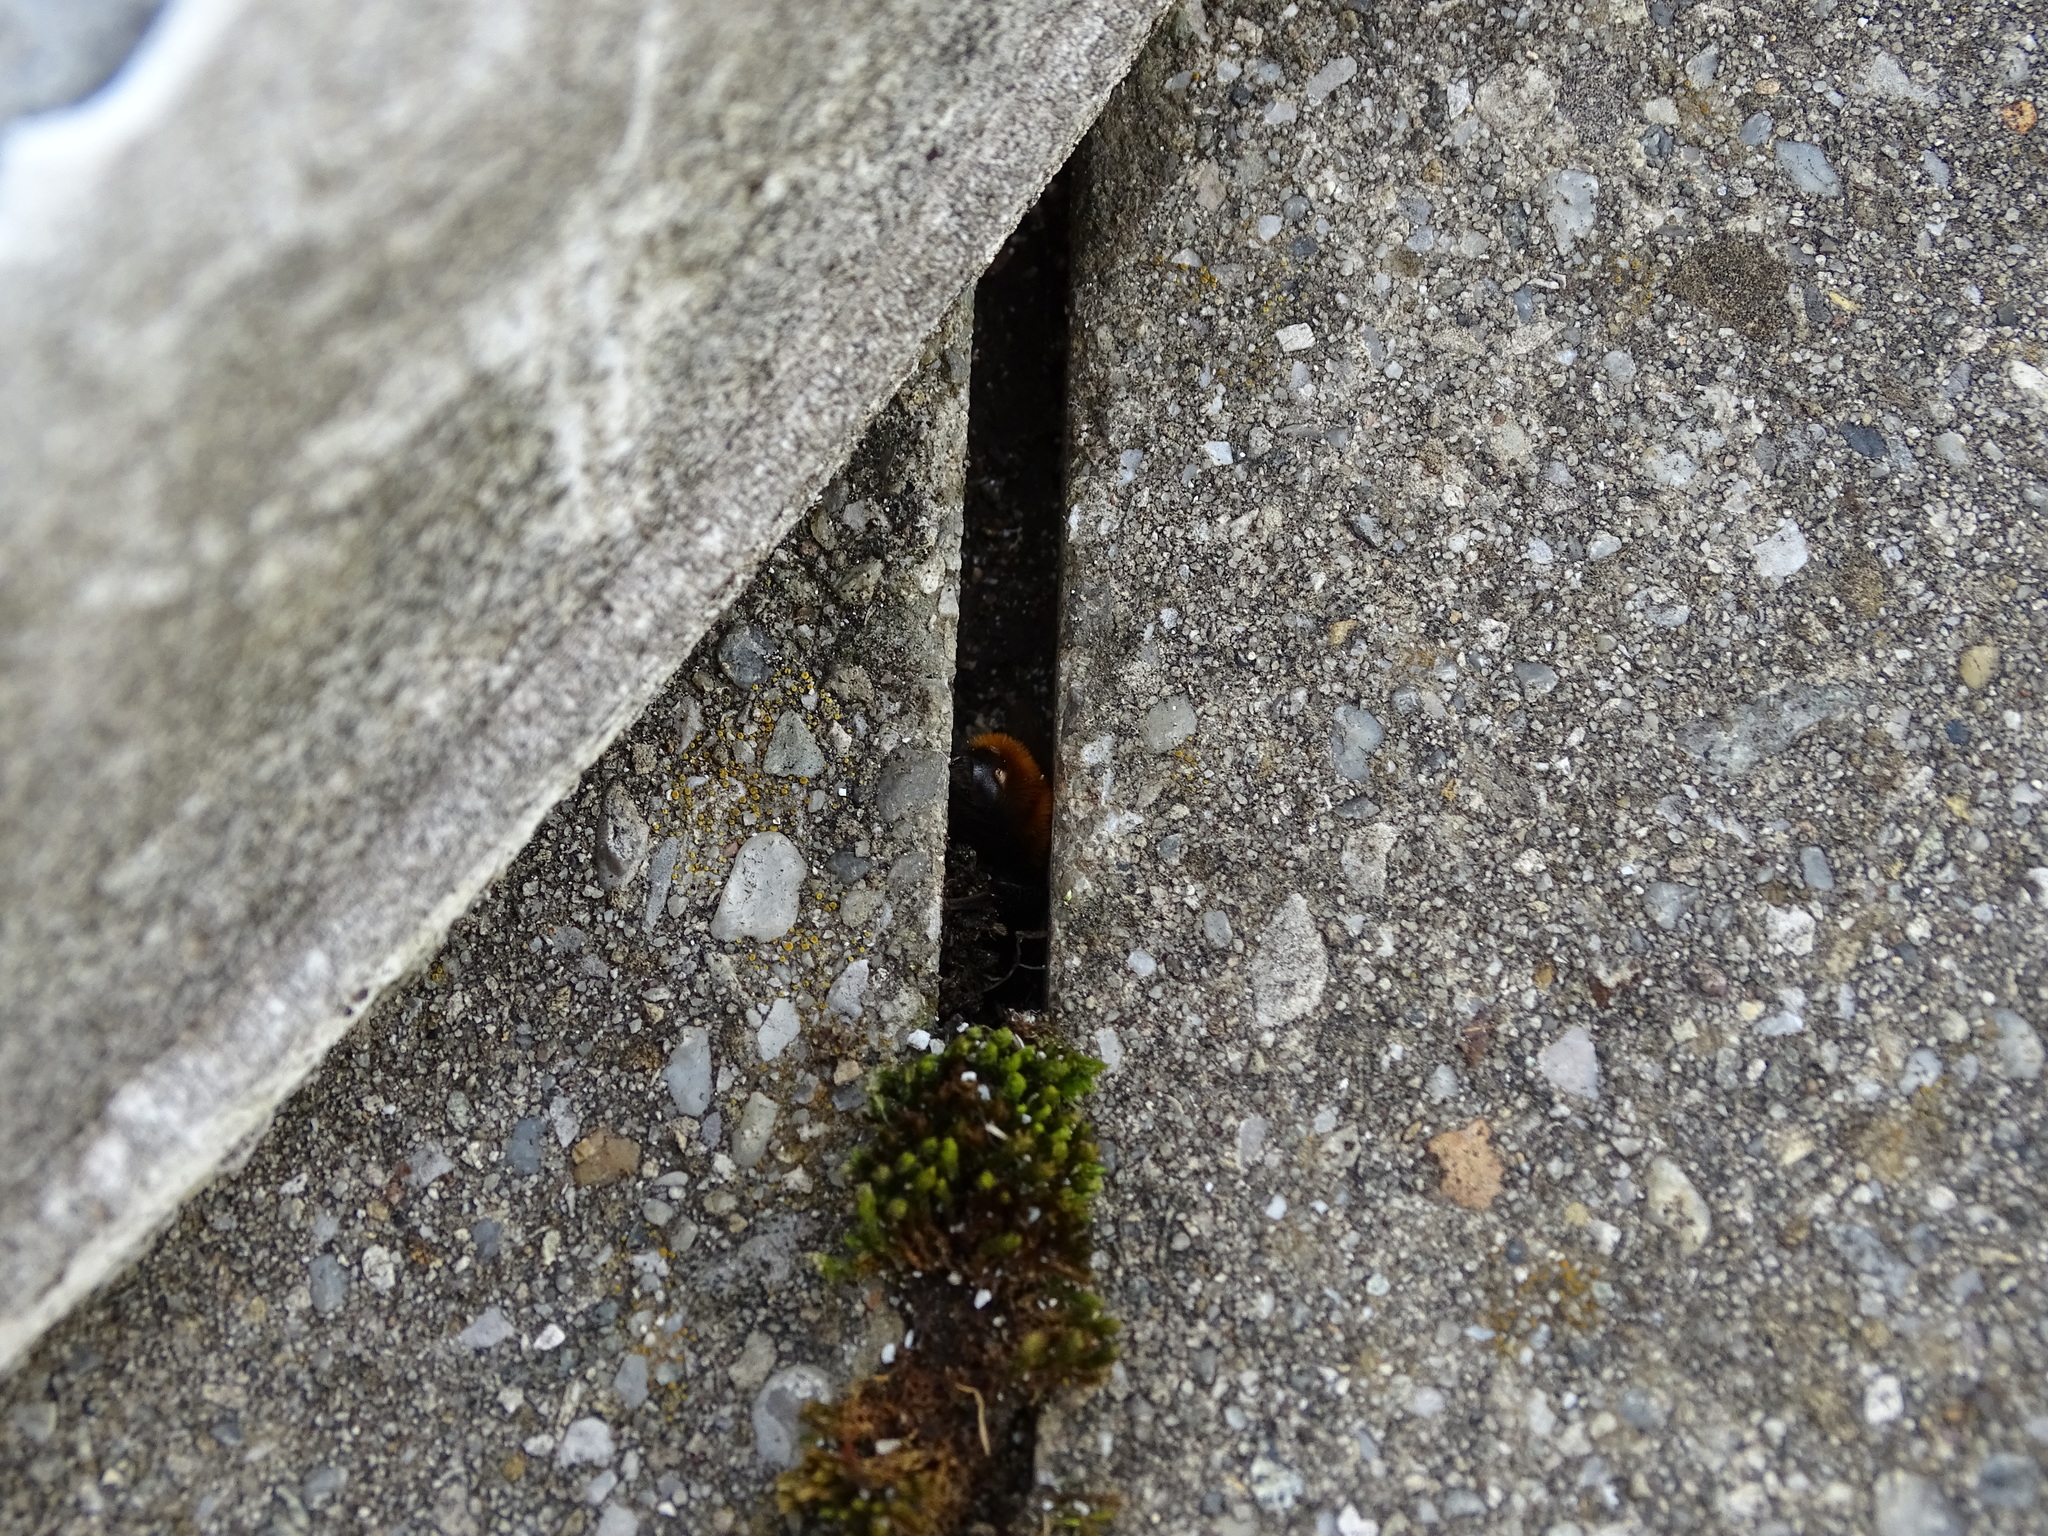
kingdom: Animalia
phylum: Arthropoda
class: Insecta
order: Hymenoptera
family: Andrenidae
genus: Andrena
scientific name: Andrena fulva
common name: Tawny mining bee
